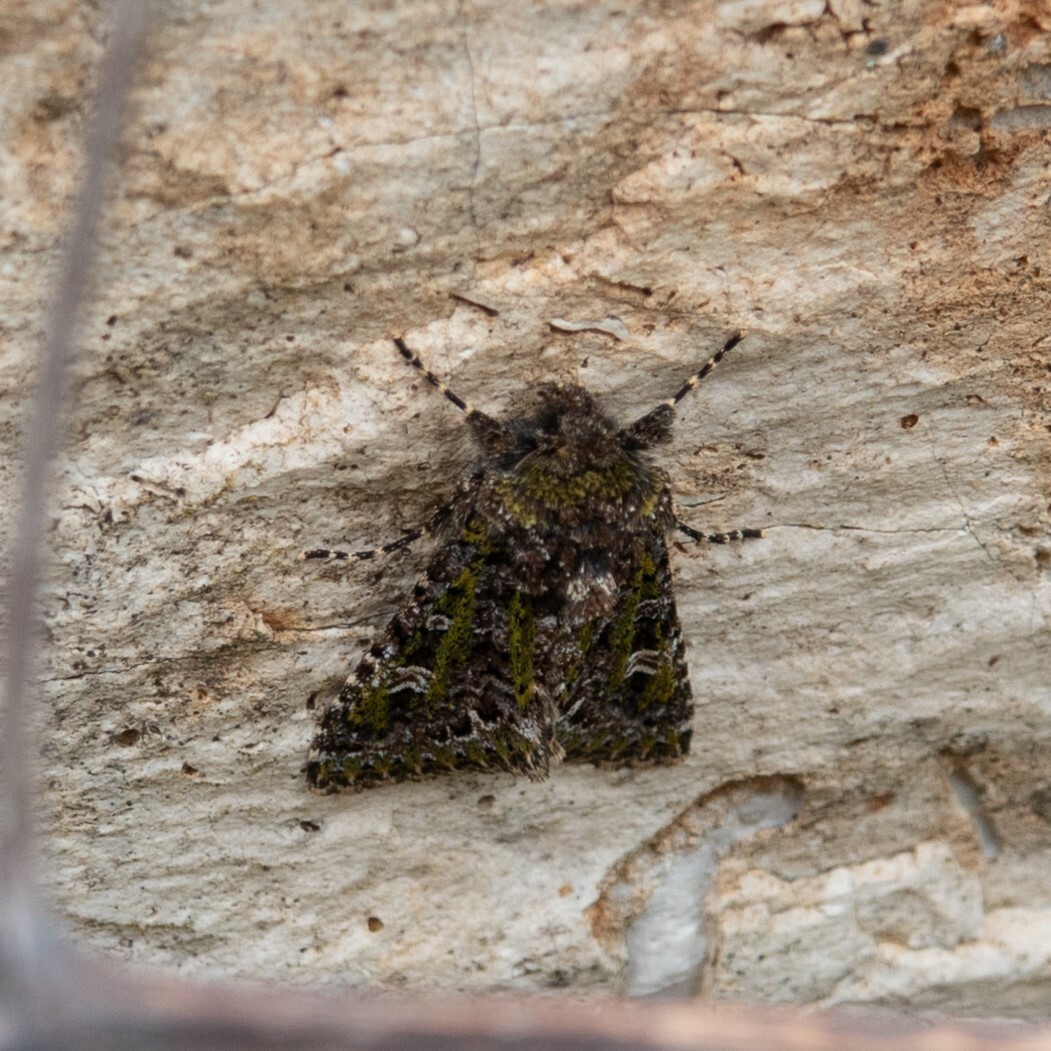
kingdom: Animalia
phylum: Arthropoda
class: Insecta
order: Lepidoptera
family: Noctuidae
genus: Valeria
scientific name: Valeria jaspidea
